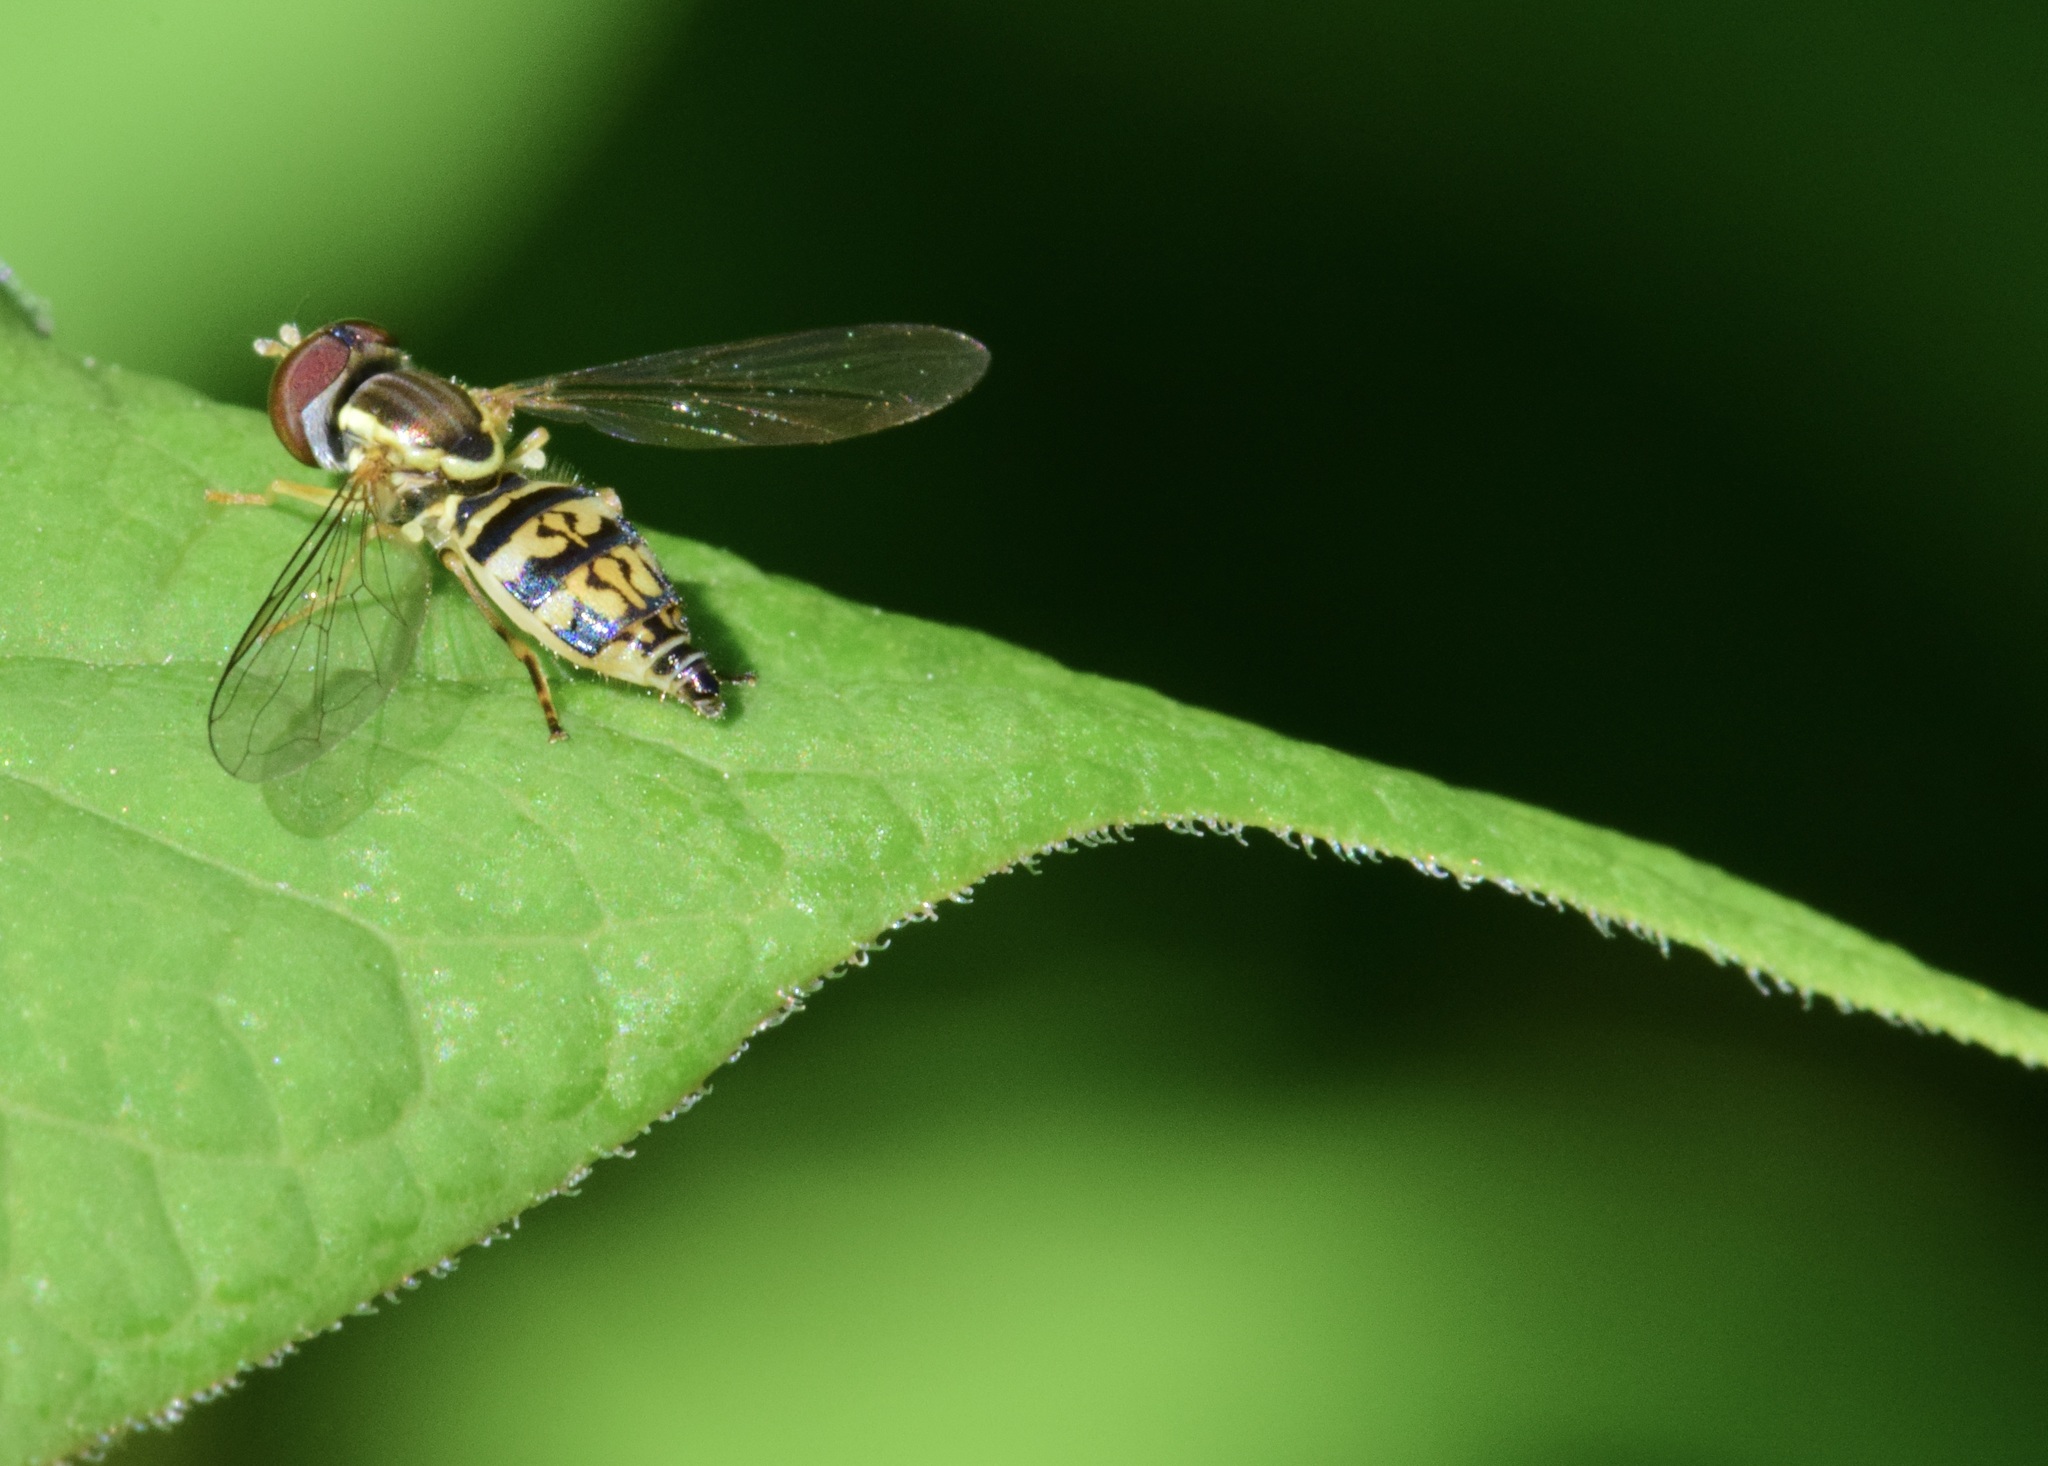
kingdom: Animalia
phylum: Arthropoda
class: Insecta
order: Diptera
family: Syrphidae
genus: Toxomerus
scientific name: Toxomerus geminatus
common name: Eastern calligrapher
